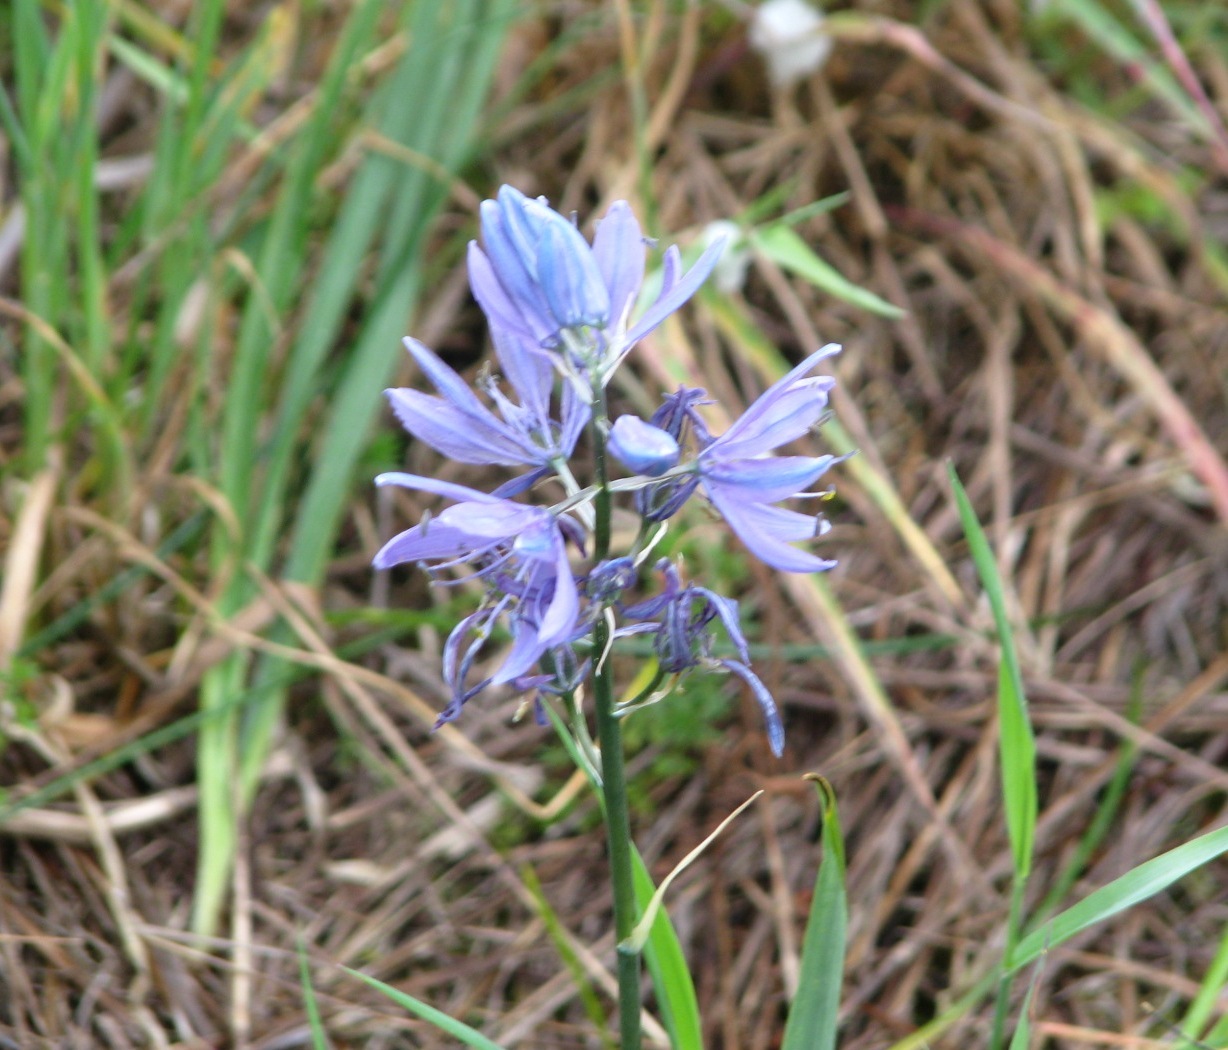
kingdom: Plantae
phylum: Tracheophyta
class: Liliopsida
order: Asparagales
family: Asparagaceae
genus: Camassia
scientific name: Camassia quamash
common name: Common camas
